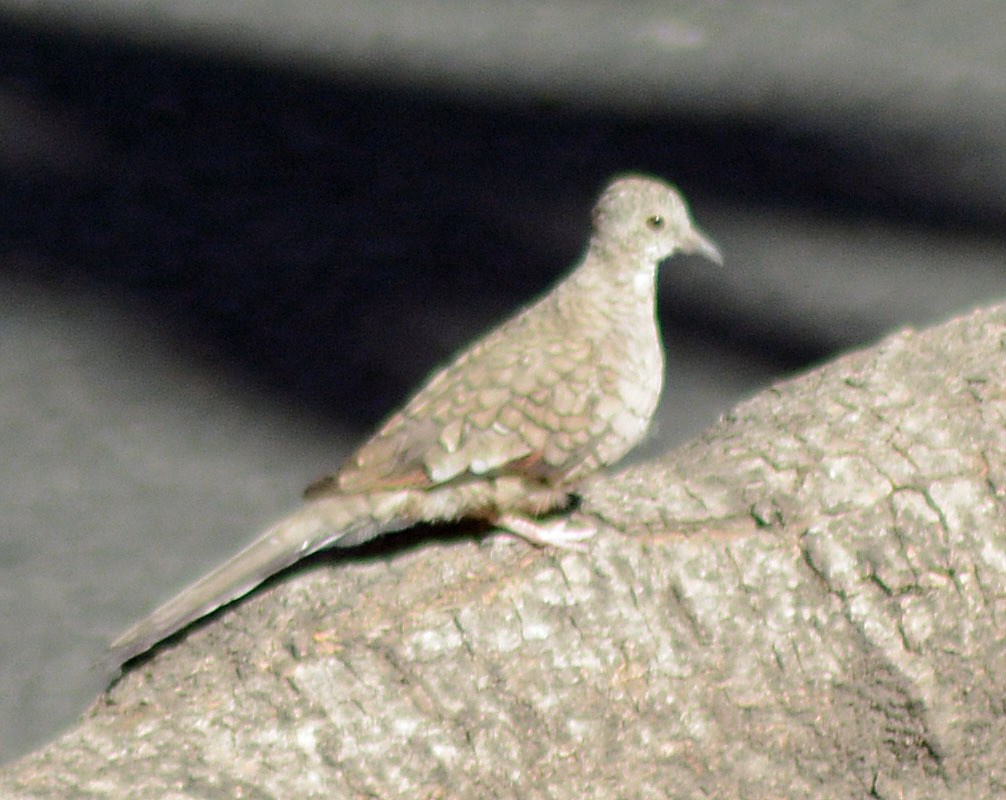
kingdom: Animalia
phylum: Chordata
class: Aves
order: Columbiformes
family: Columbidae
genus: Columbina
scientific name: Columbina inca
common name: Inca dove
